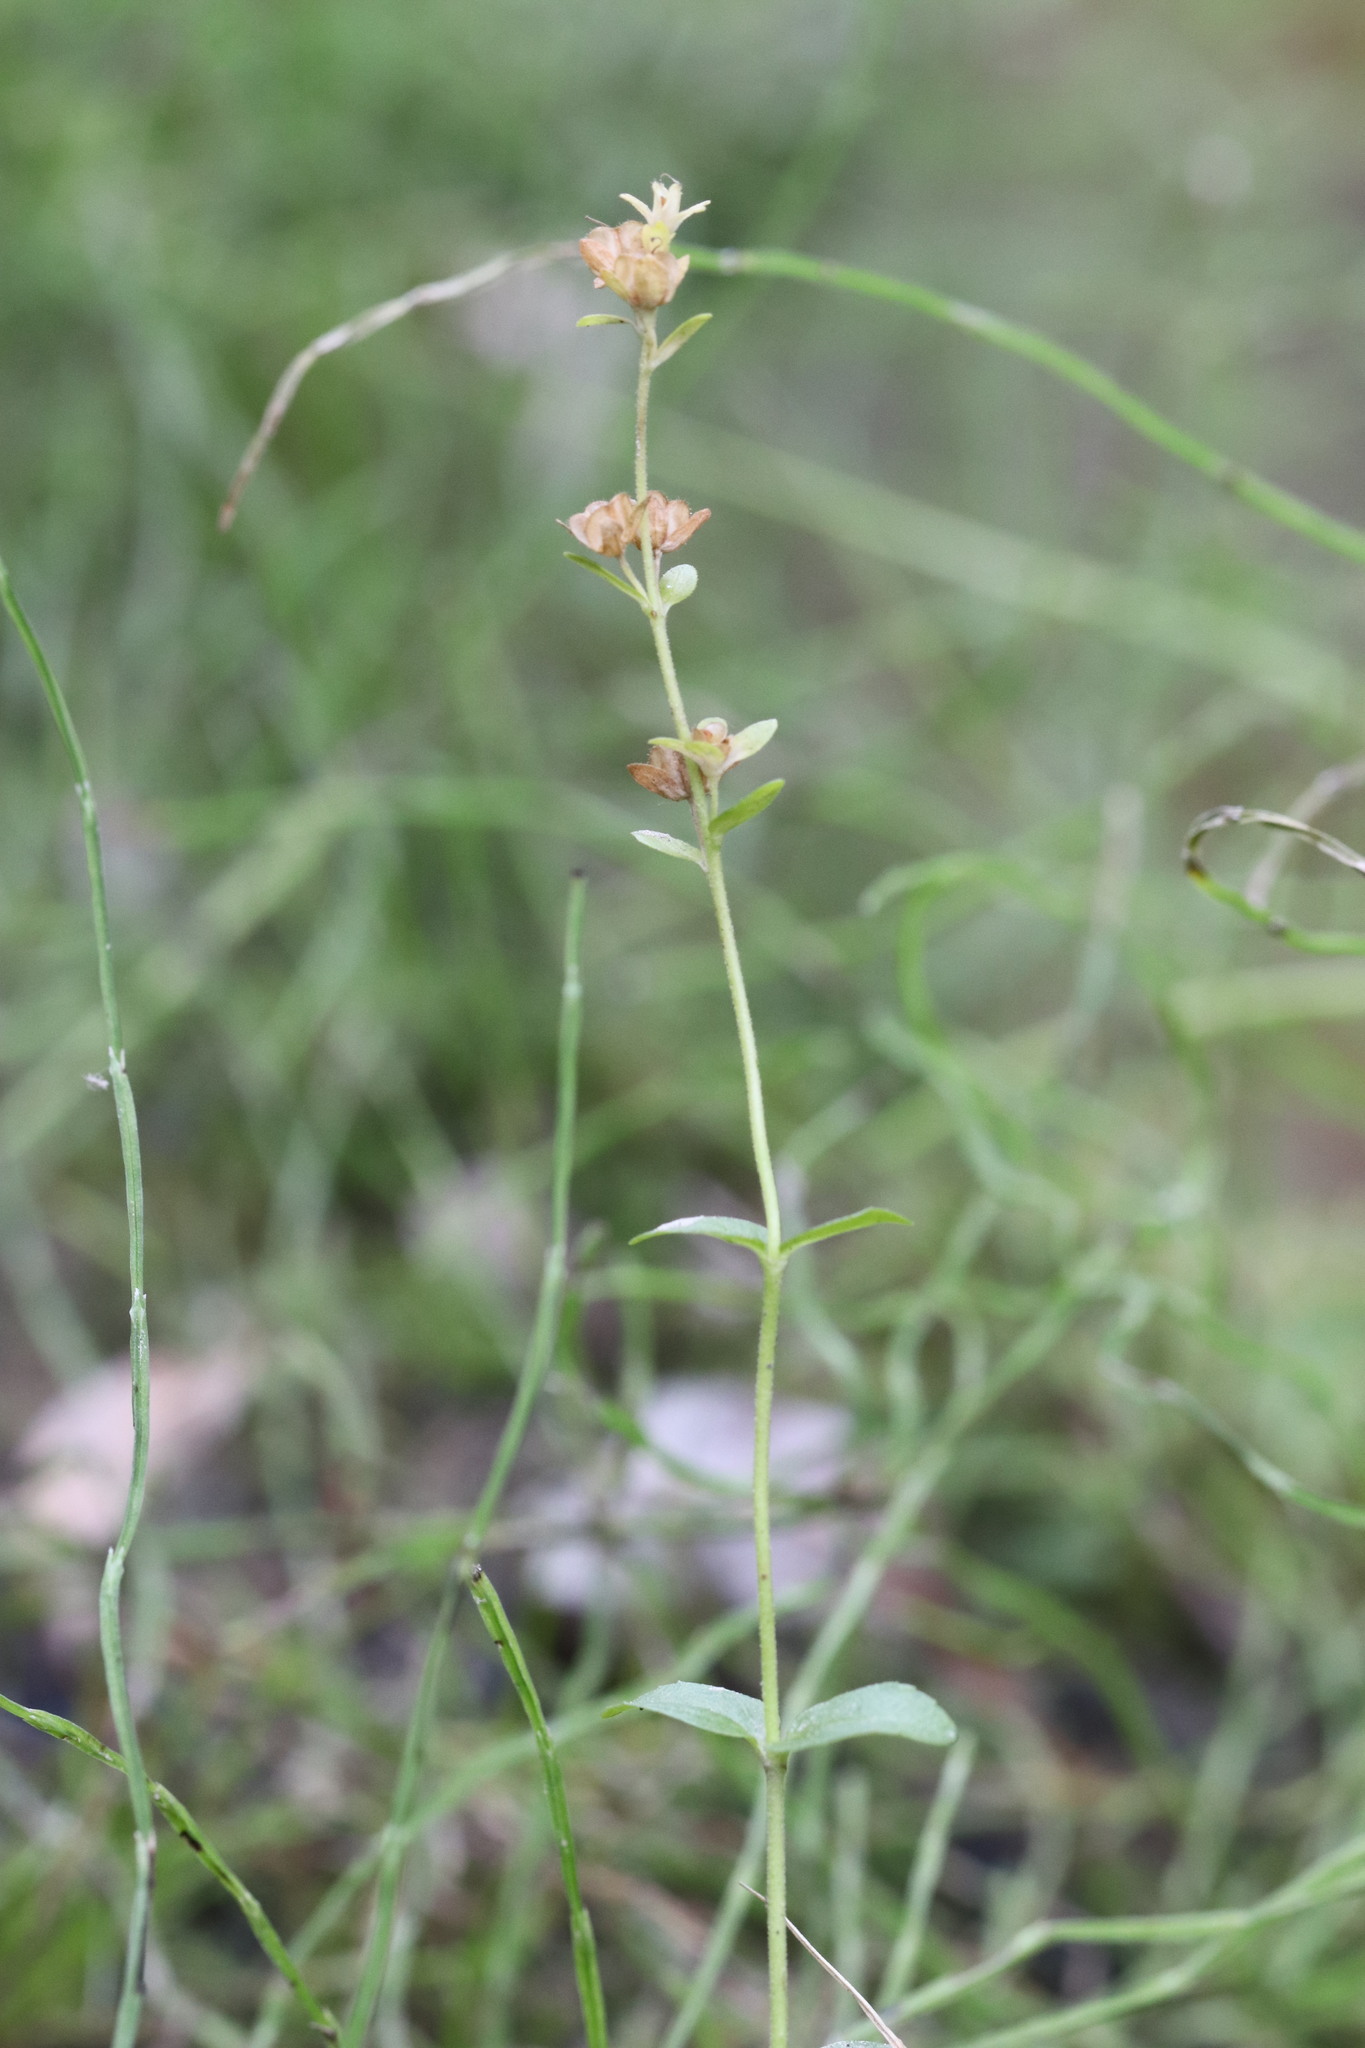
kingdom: Plantae
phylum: Tracheophyta
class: Magnoliopsida
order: Lamiales
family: Plantaginaceae
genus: Veronica
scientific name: Veronica serpyllifolia
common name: Thyme-leaved speedwell
